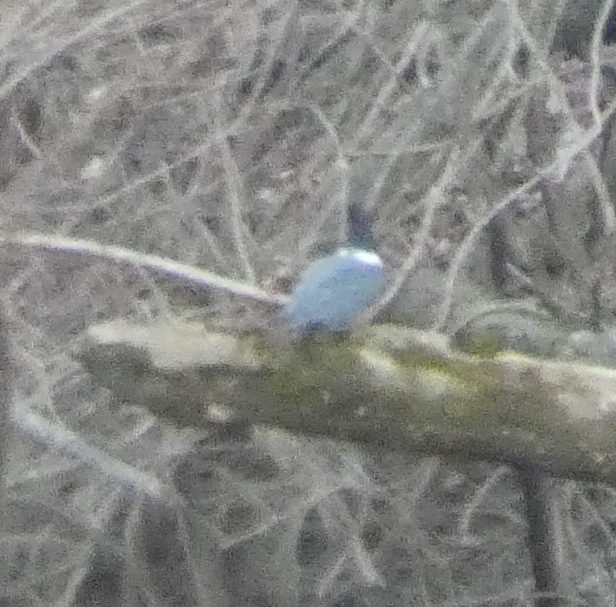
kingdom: Animalia
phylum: Chordata
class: Aves
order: Coraciiformes
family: Alcedinidae
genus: Megaceryle
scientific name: Megaceryle alcyon
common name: Belted kingfisher
